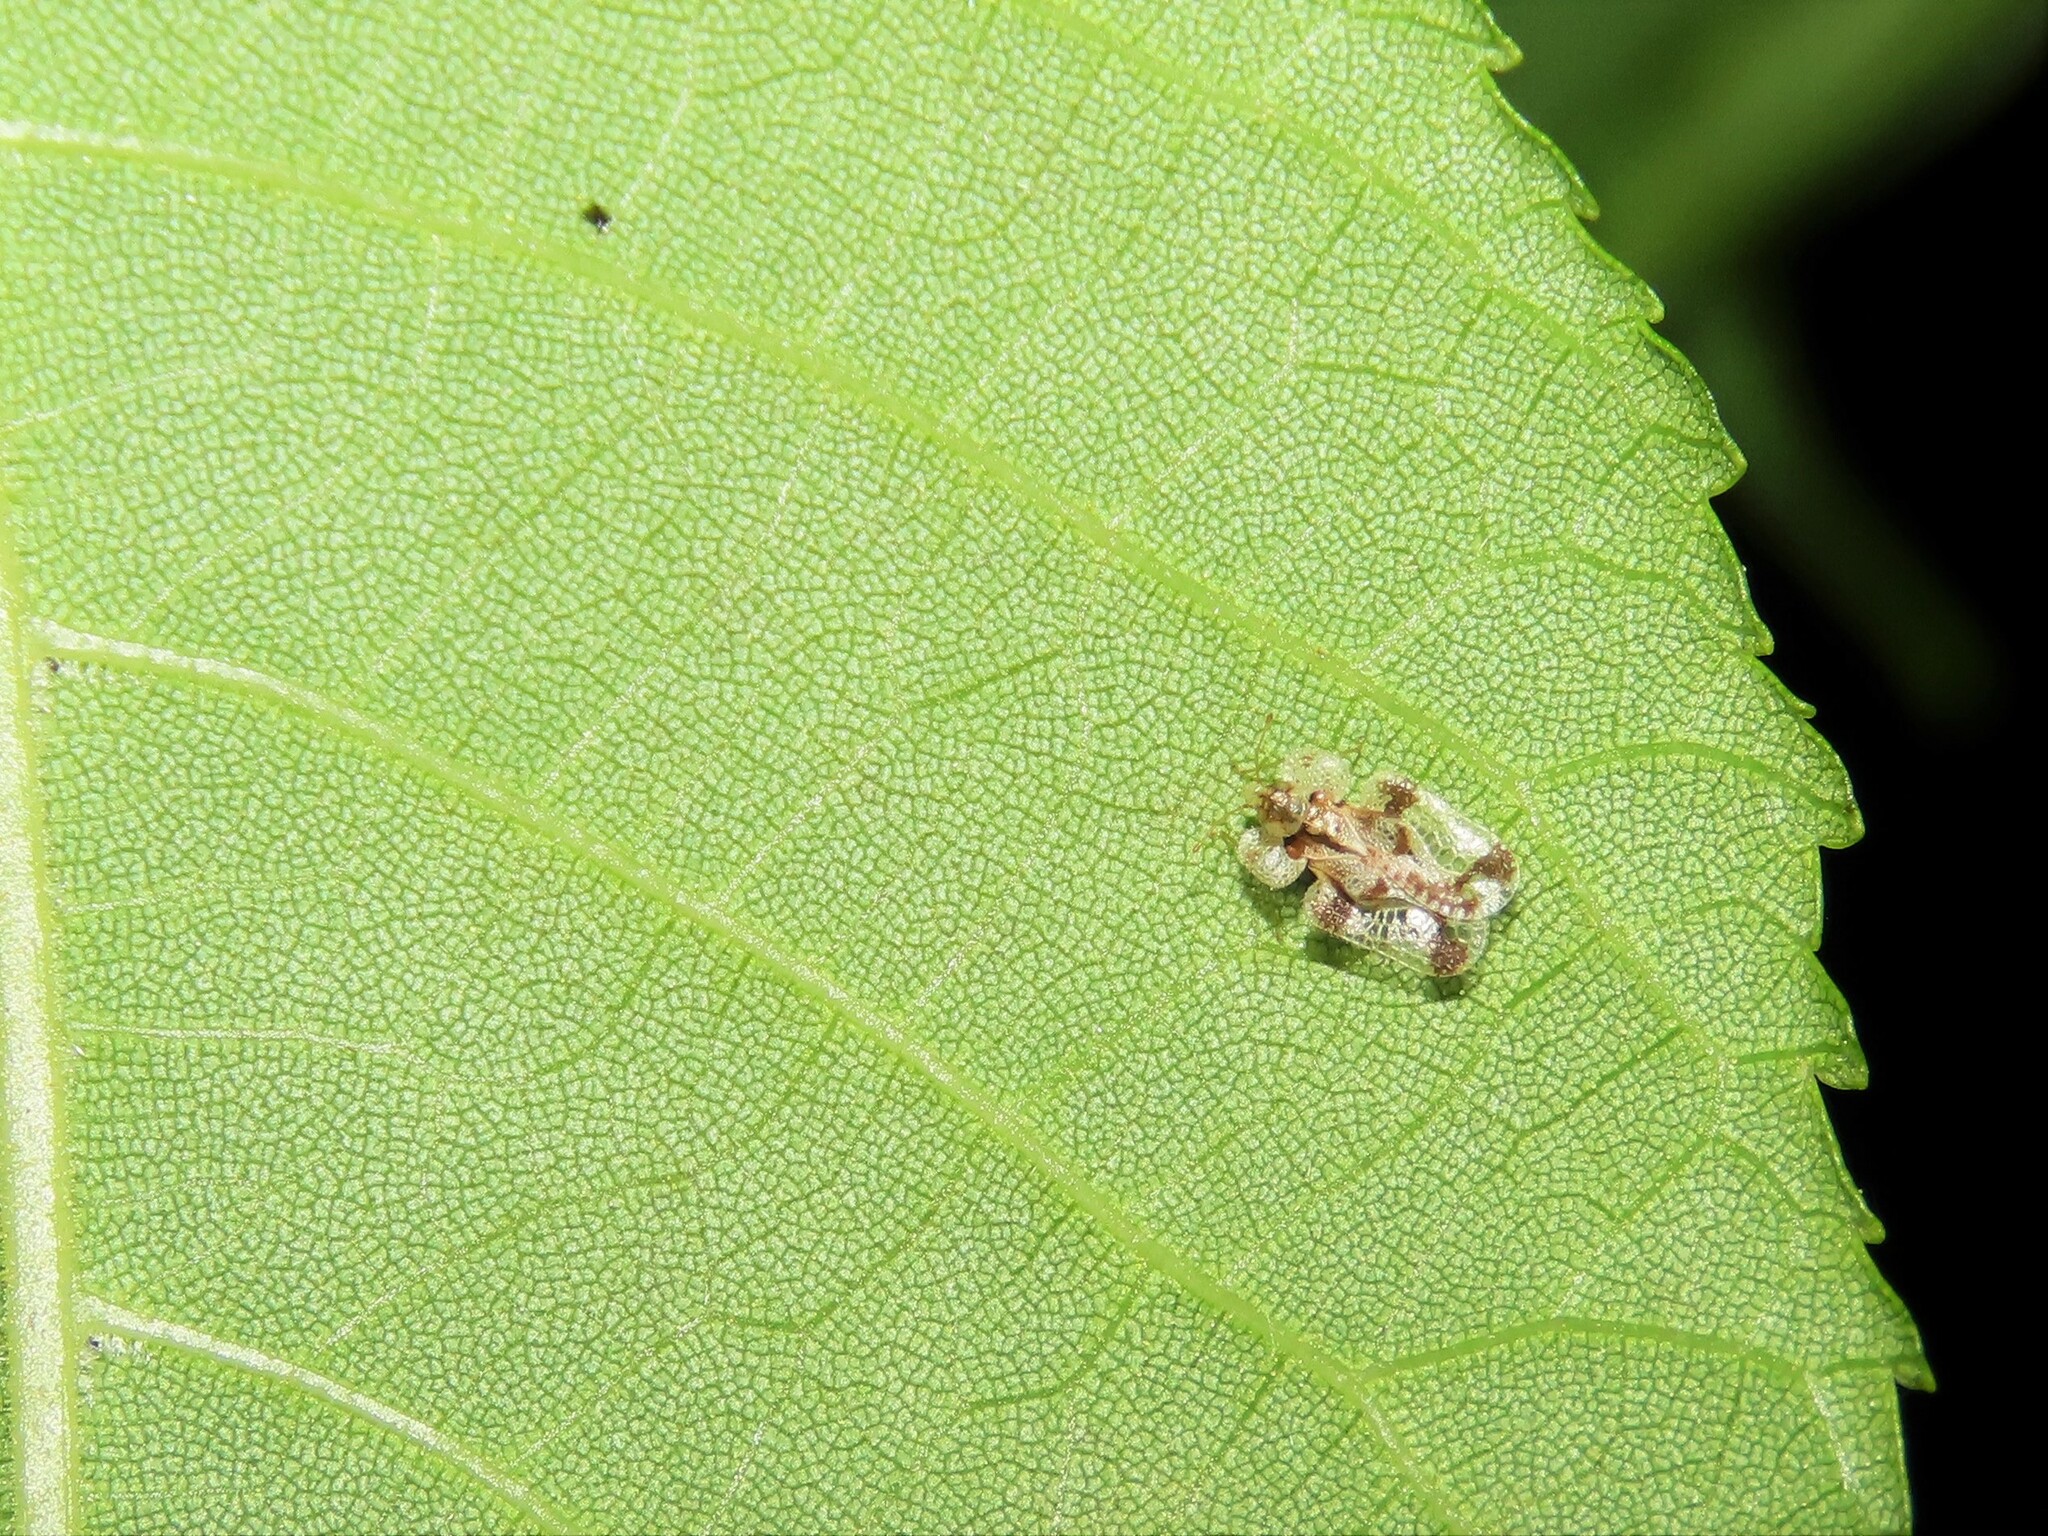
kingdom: Animalia
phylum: Arthropoda
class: Insecta
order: Hemiptera
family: Tingidae
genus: Corythucha
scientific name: Corythucha juglandis
